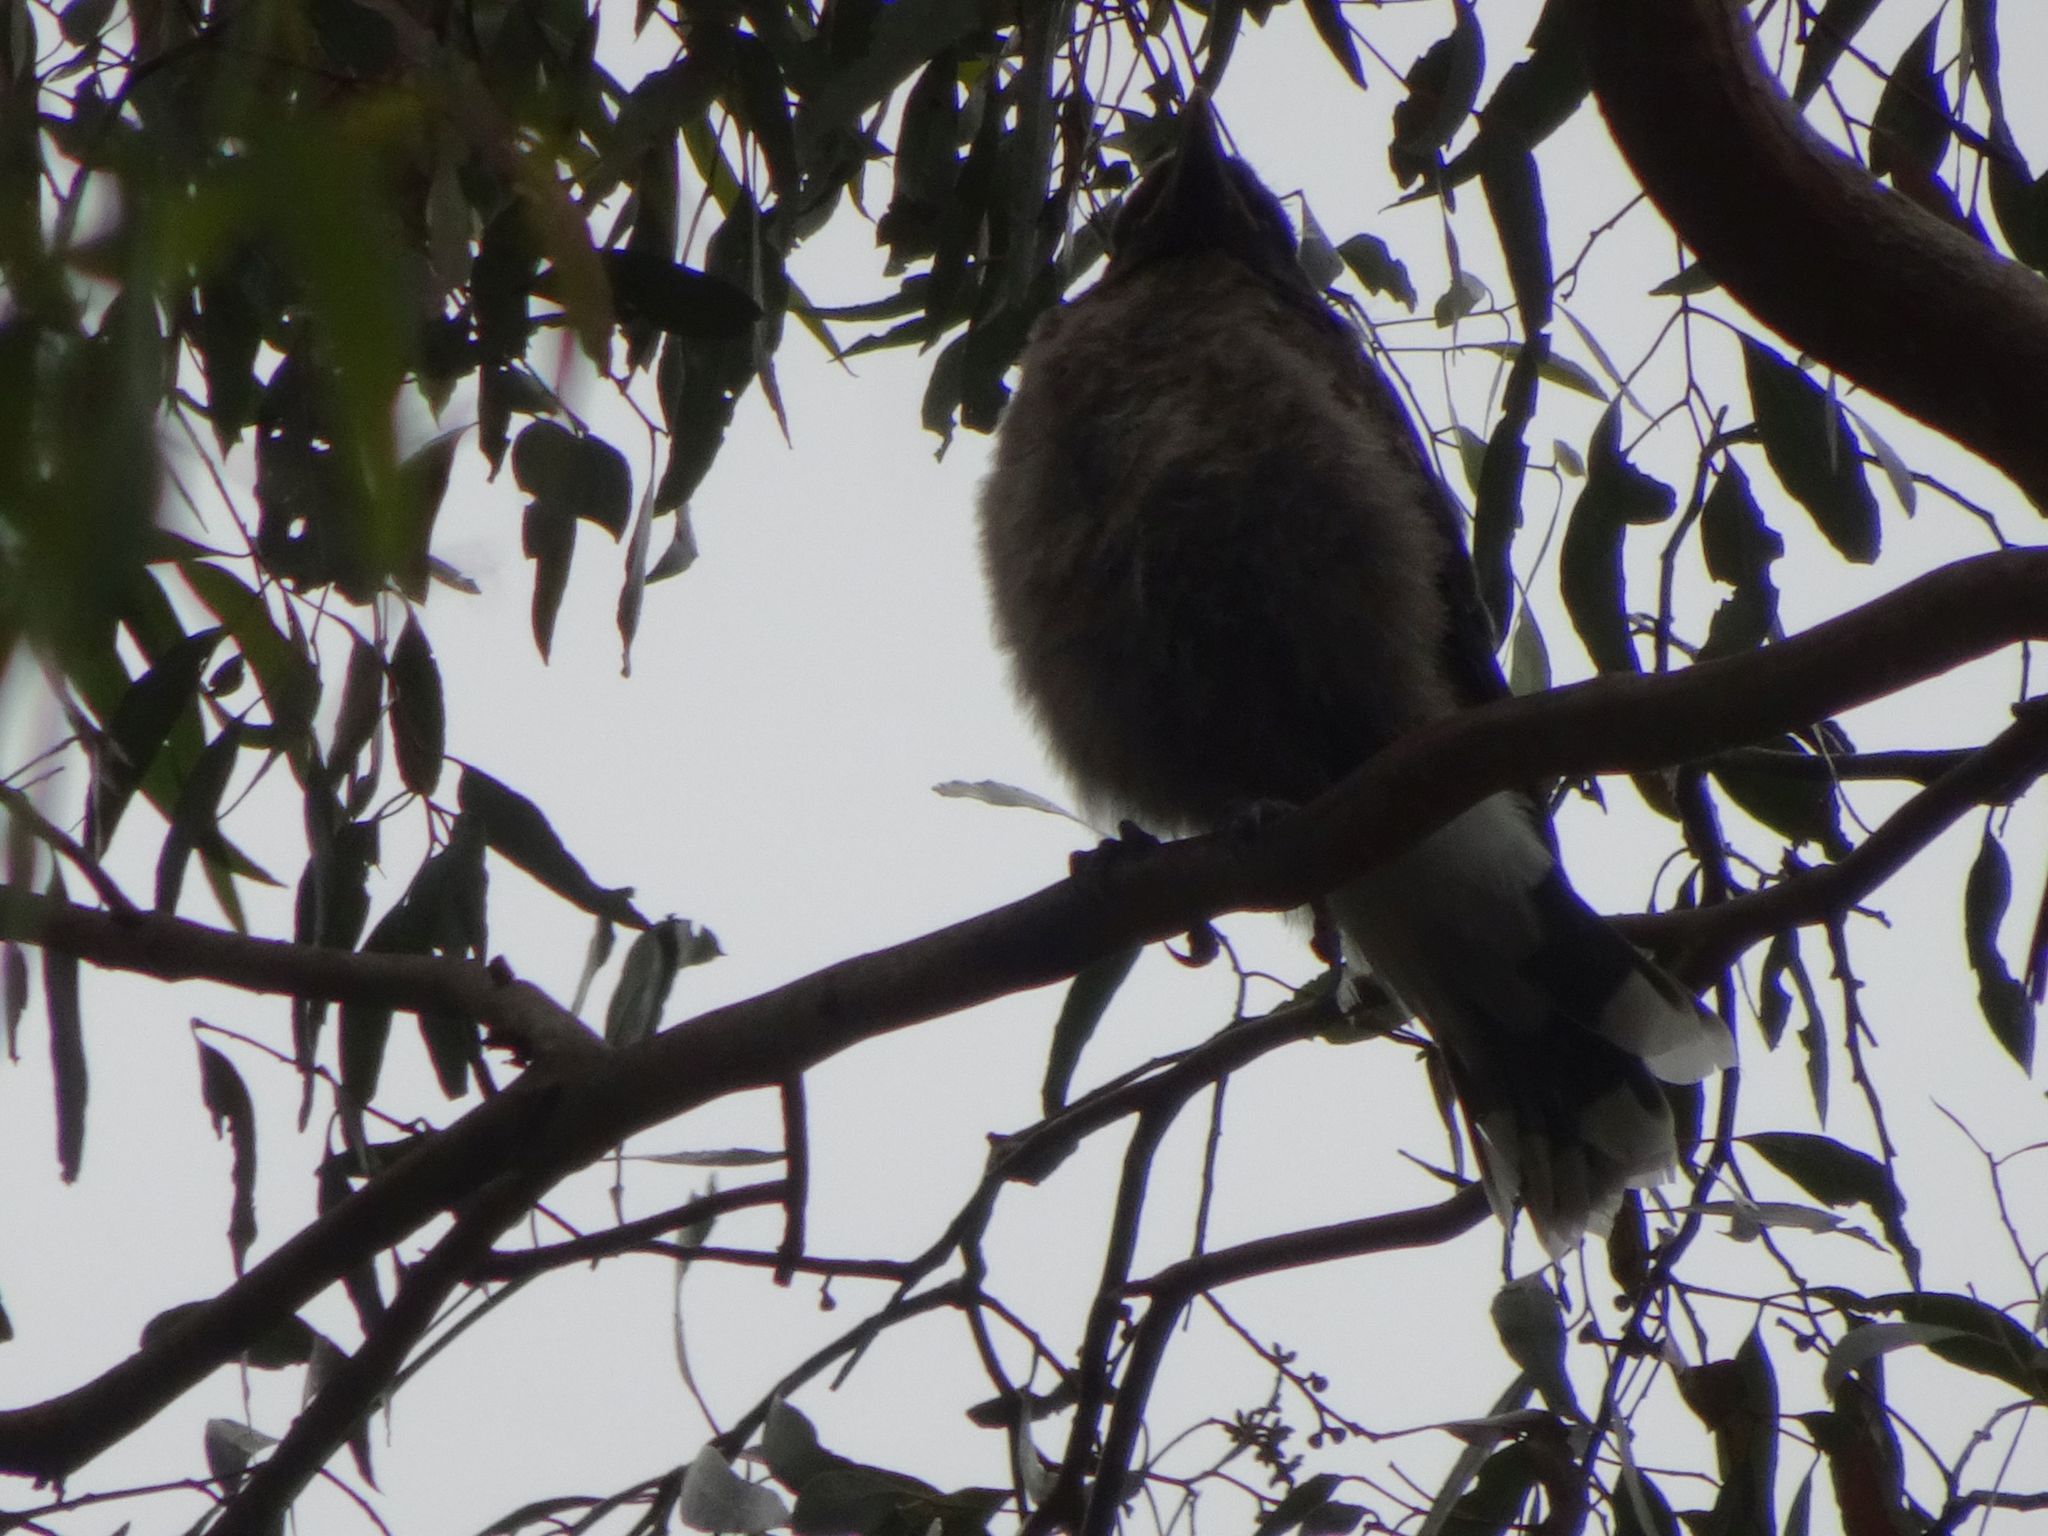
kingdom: Animalia
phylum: Chordata
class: Aves
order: Passeriformes
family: Cracticidae
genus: Strepera
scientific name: Strepera graculina
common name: Pied currawong
